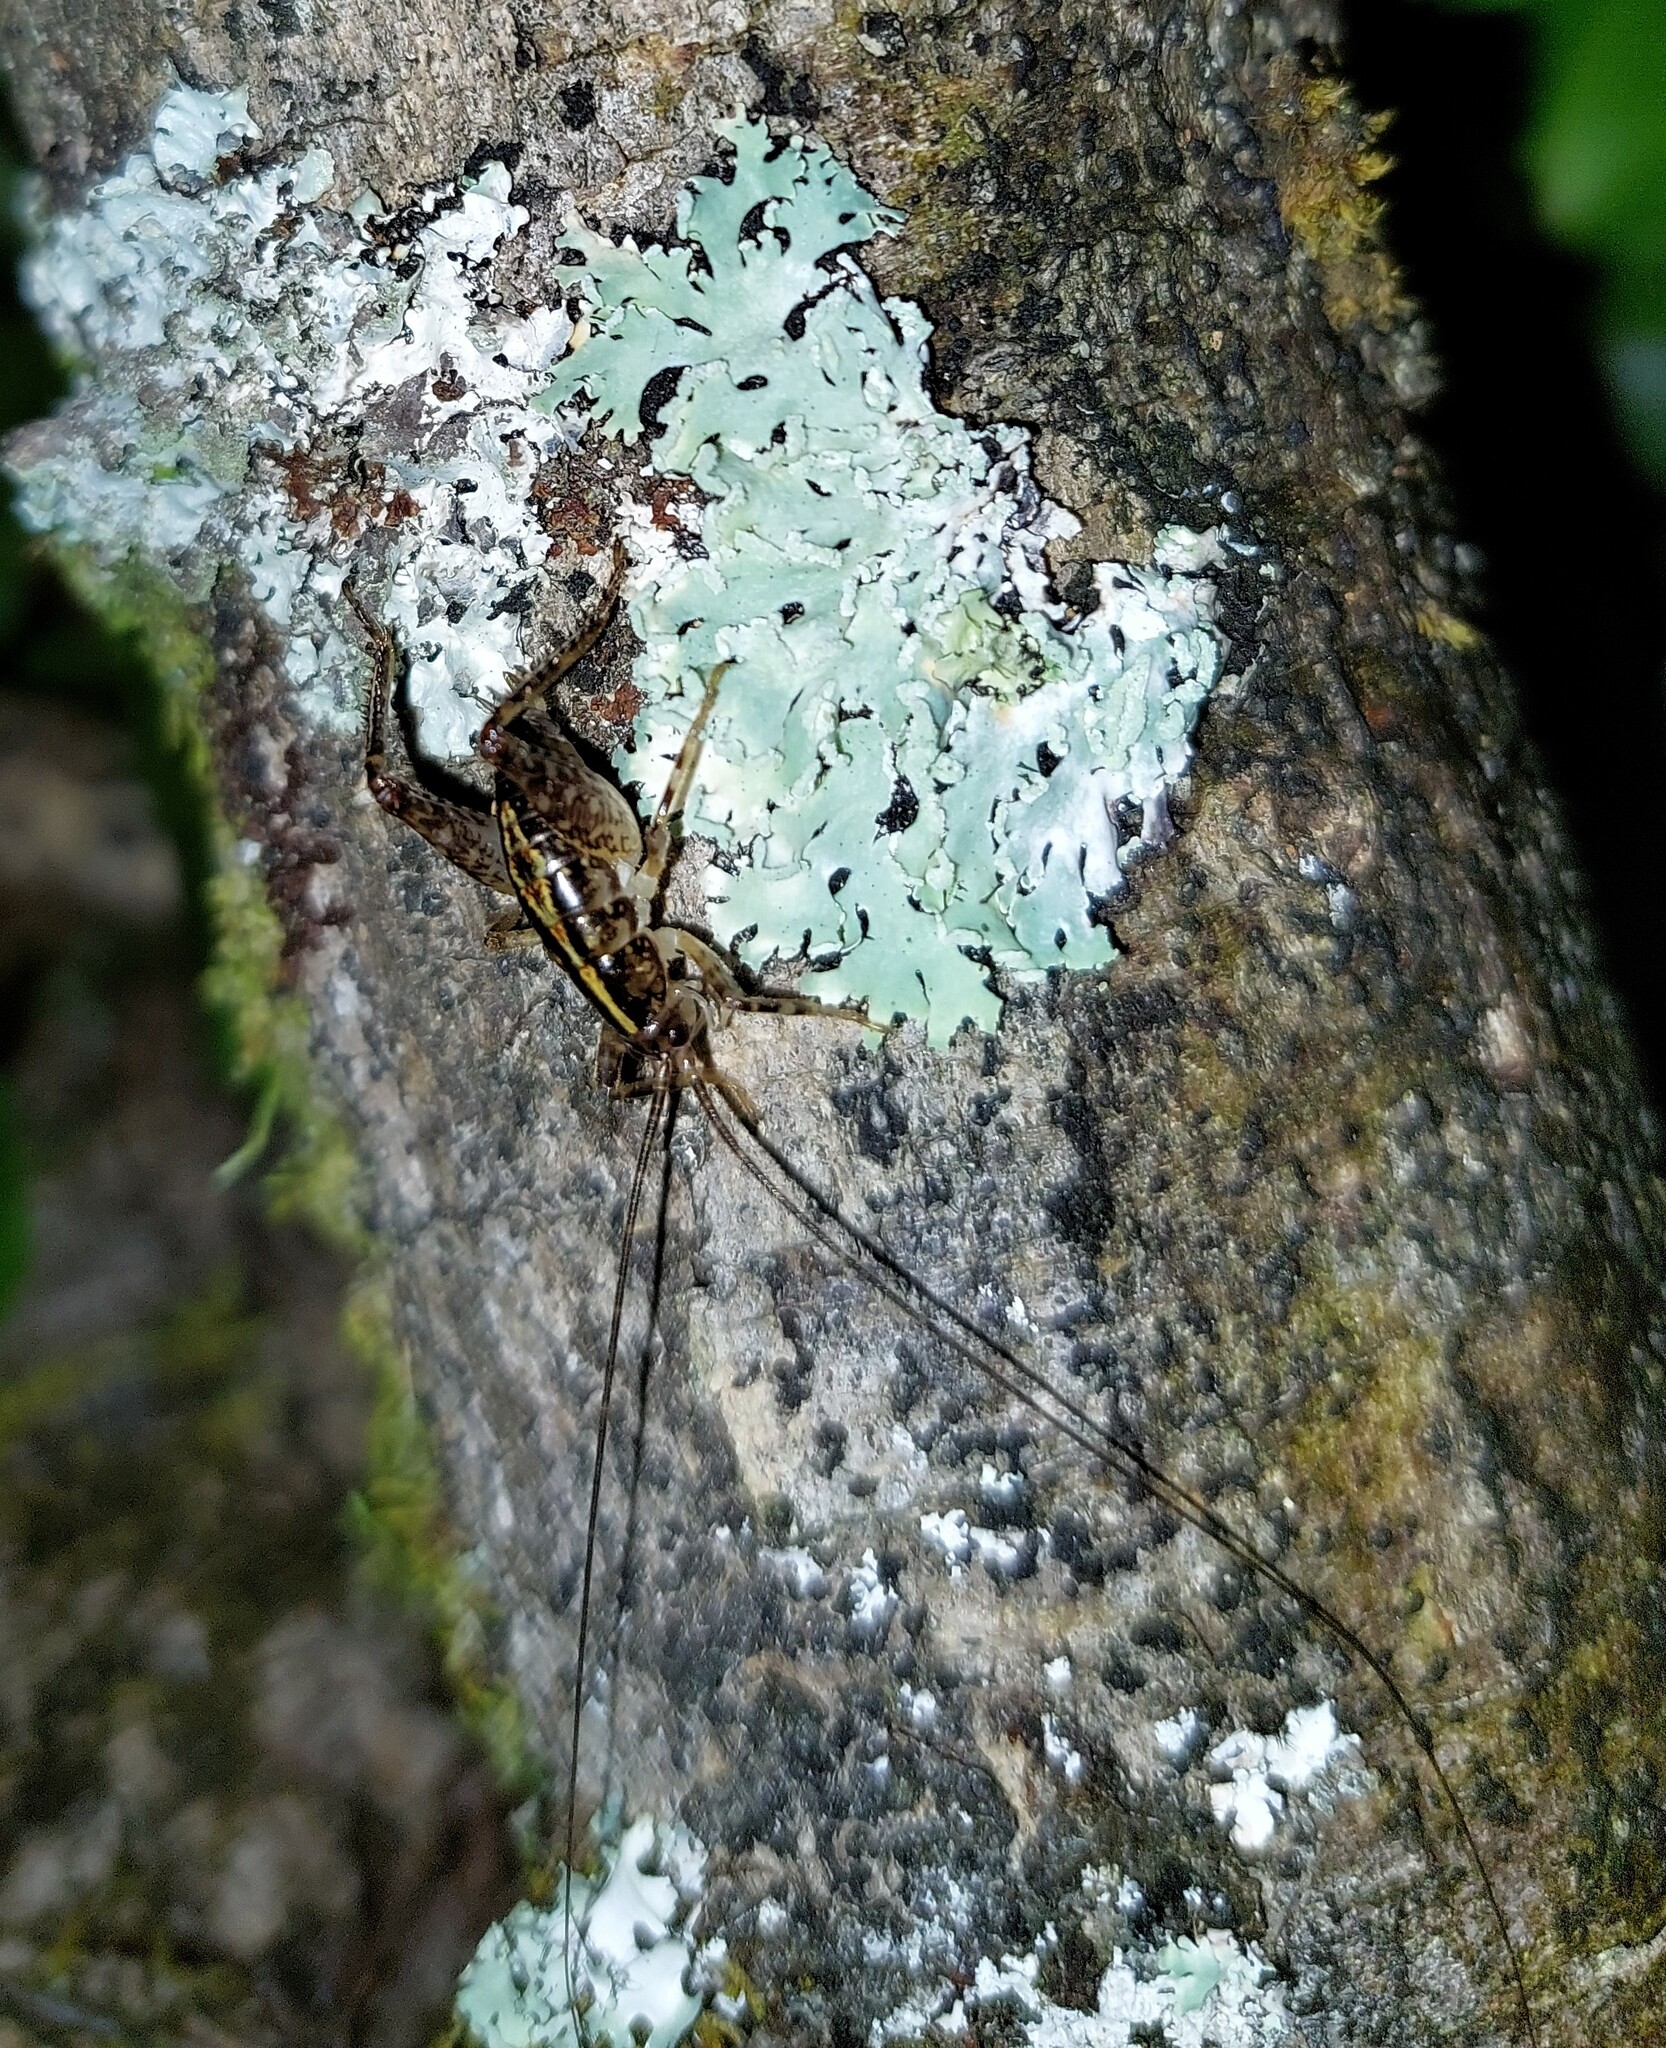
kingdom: Animalia
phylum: Arthropoda
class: Insecta
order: Orthoptera
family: Rhaphidophoridae
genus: Talitropsis
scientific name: Talitropsis sedilloti
